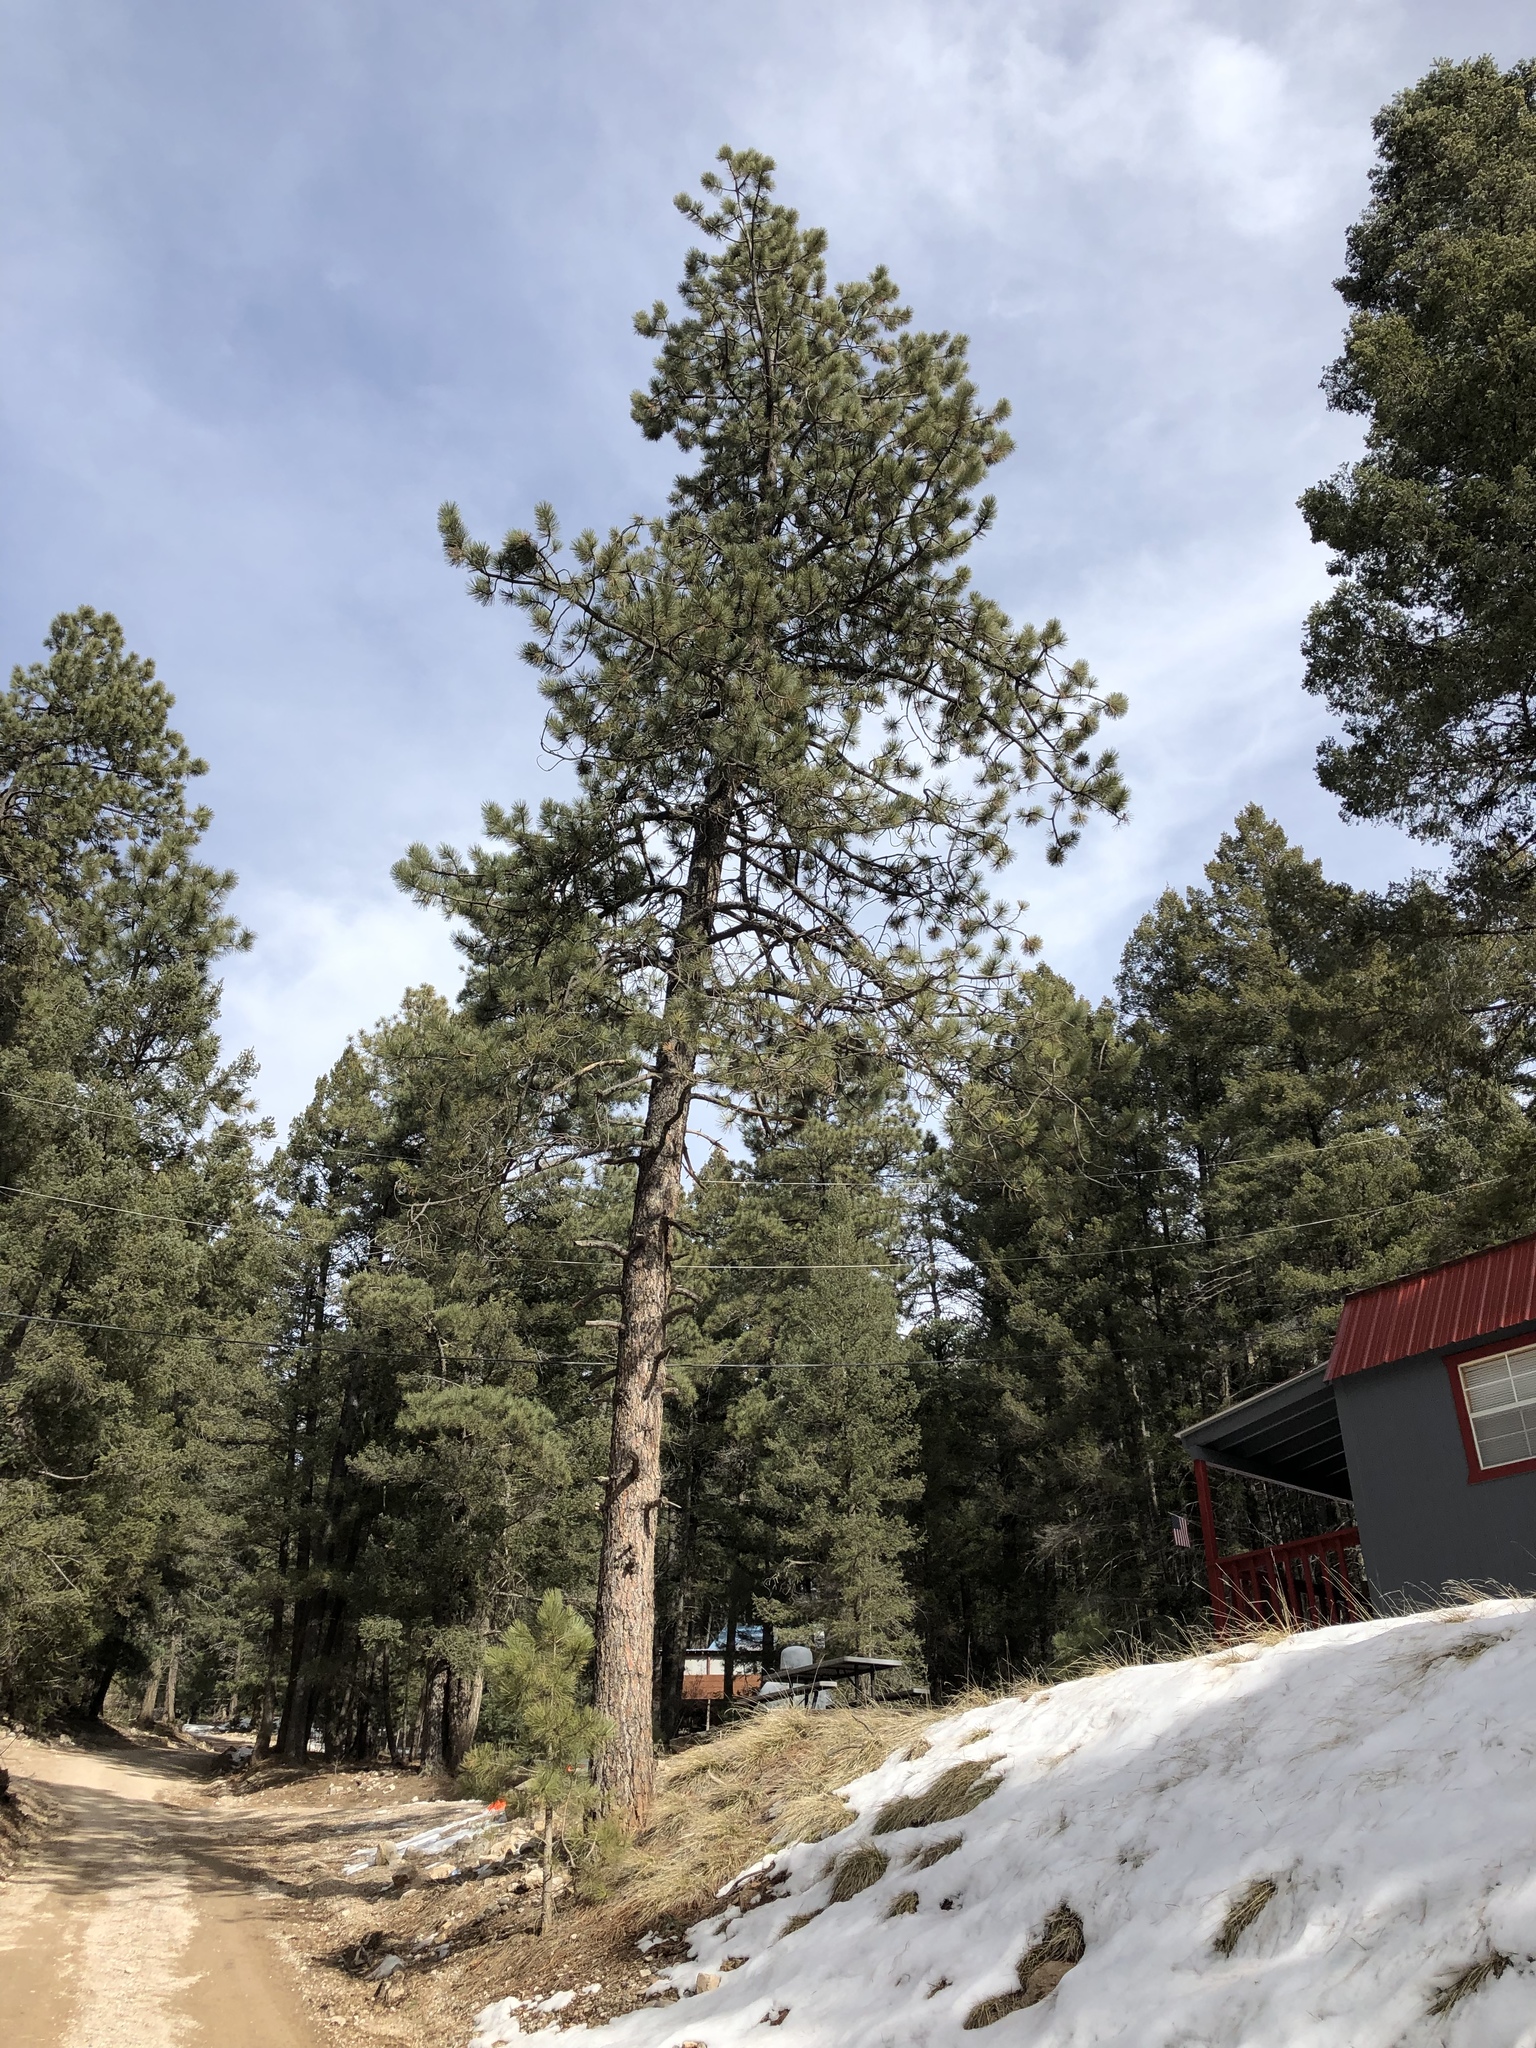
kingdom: Plantae
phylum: Tracheophyta
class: Pinopsida
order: Pinales
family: Pinaceae
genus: Pinus
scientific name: Pinus ponderosa
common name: Western yellow-pine
